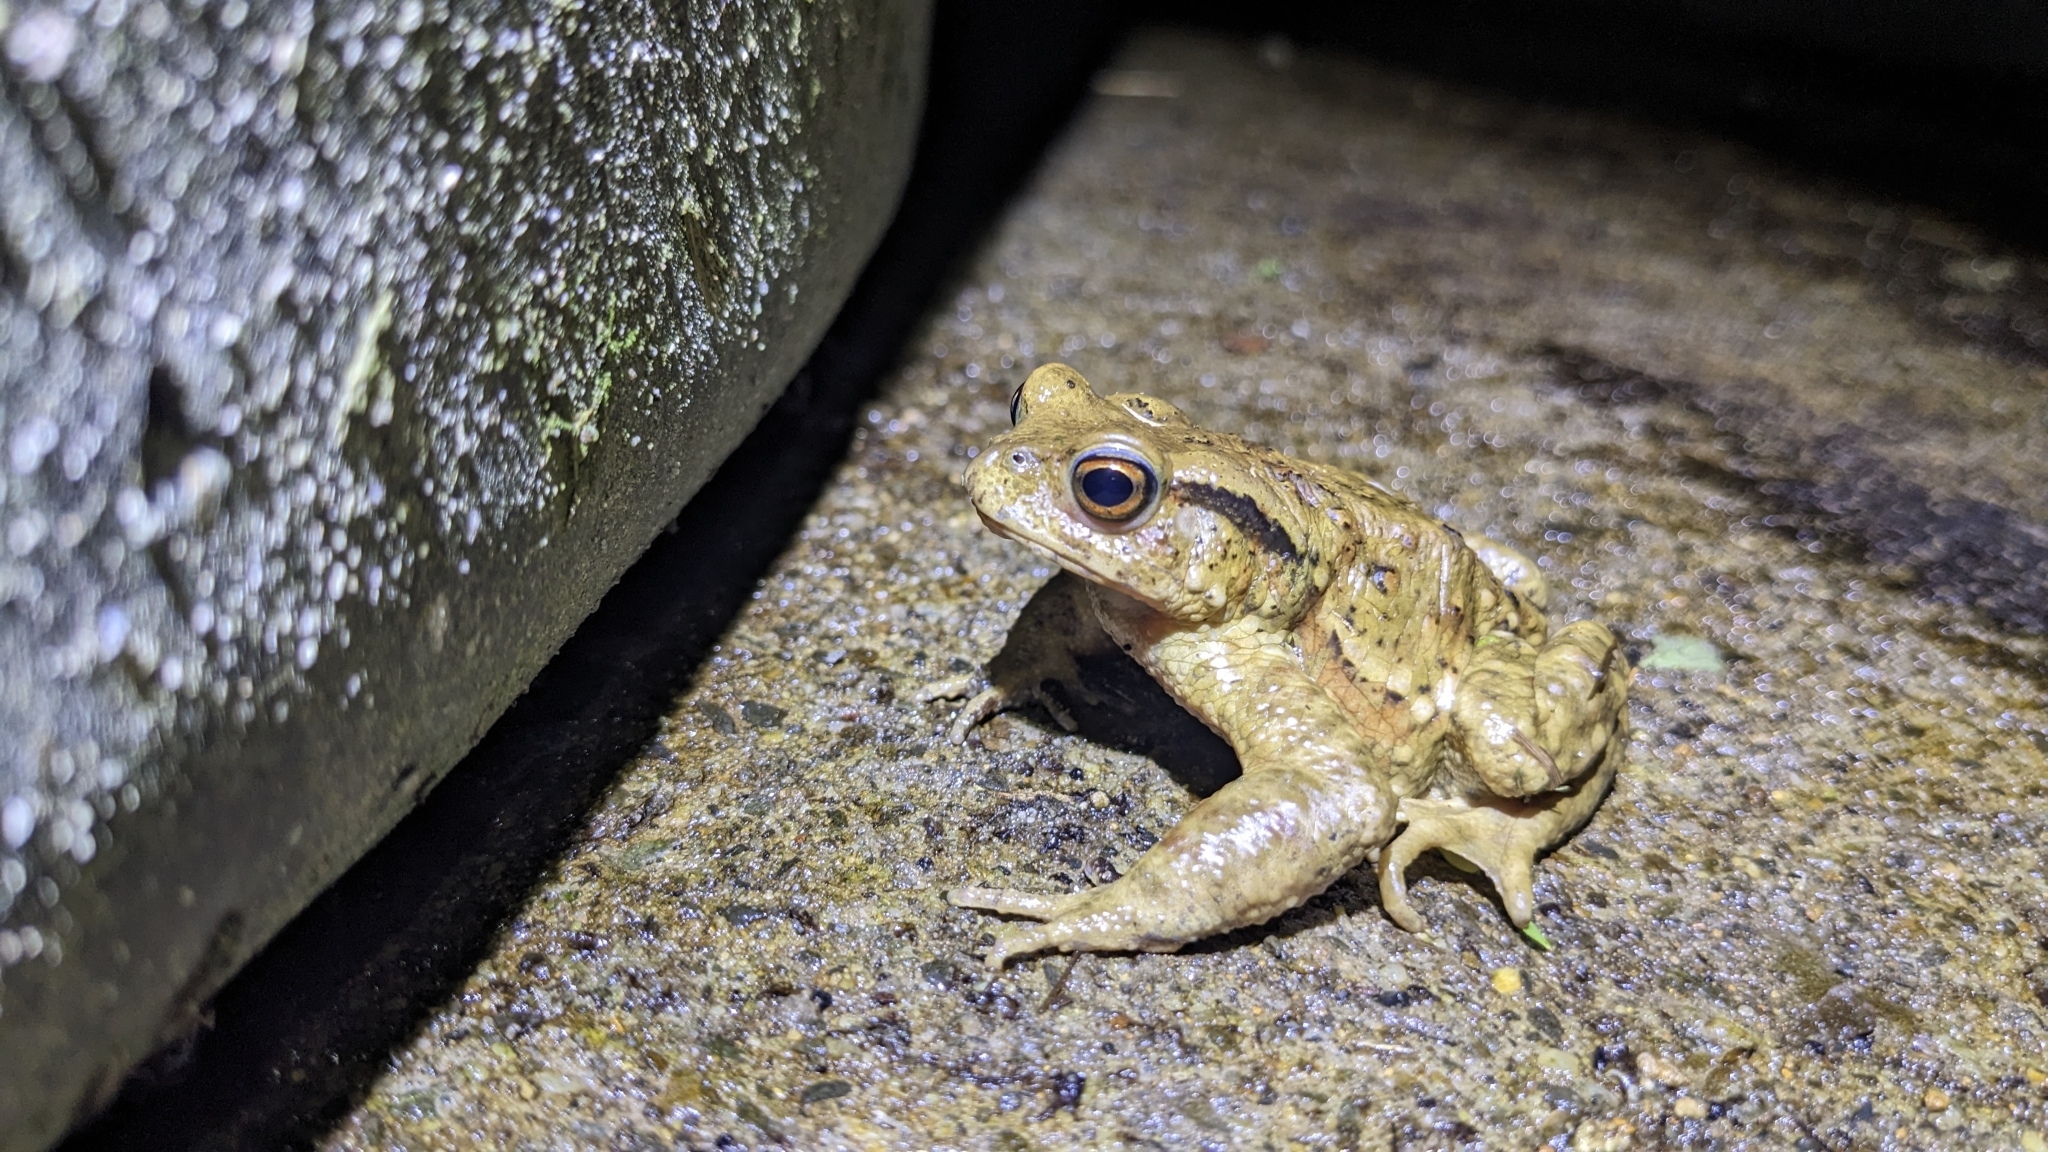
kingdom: Animalia
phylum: Chordata
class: Amphibia
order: Anura
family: Bufonidae
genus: Bufo
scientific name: Bufo bankorensis
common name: Bankor toad
